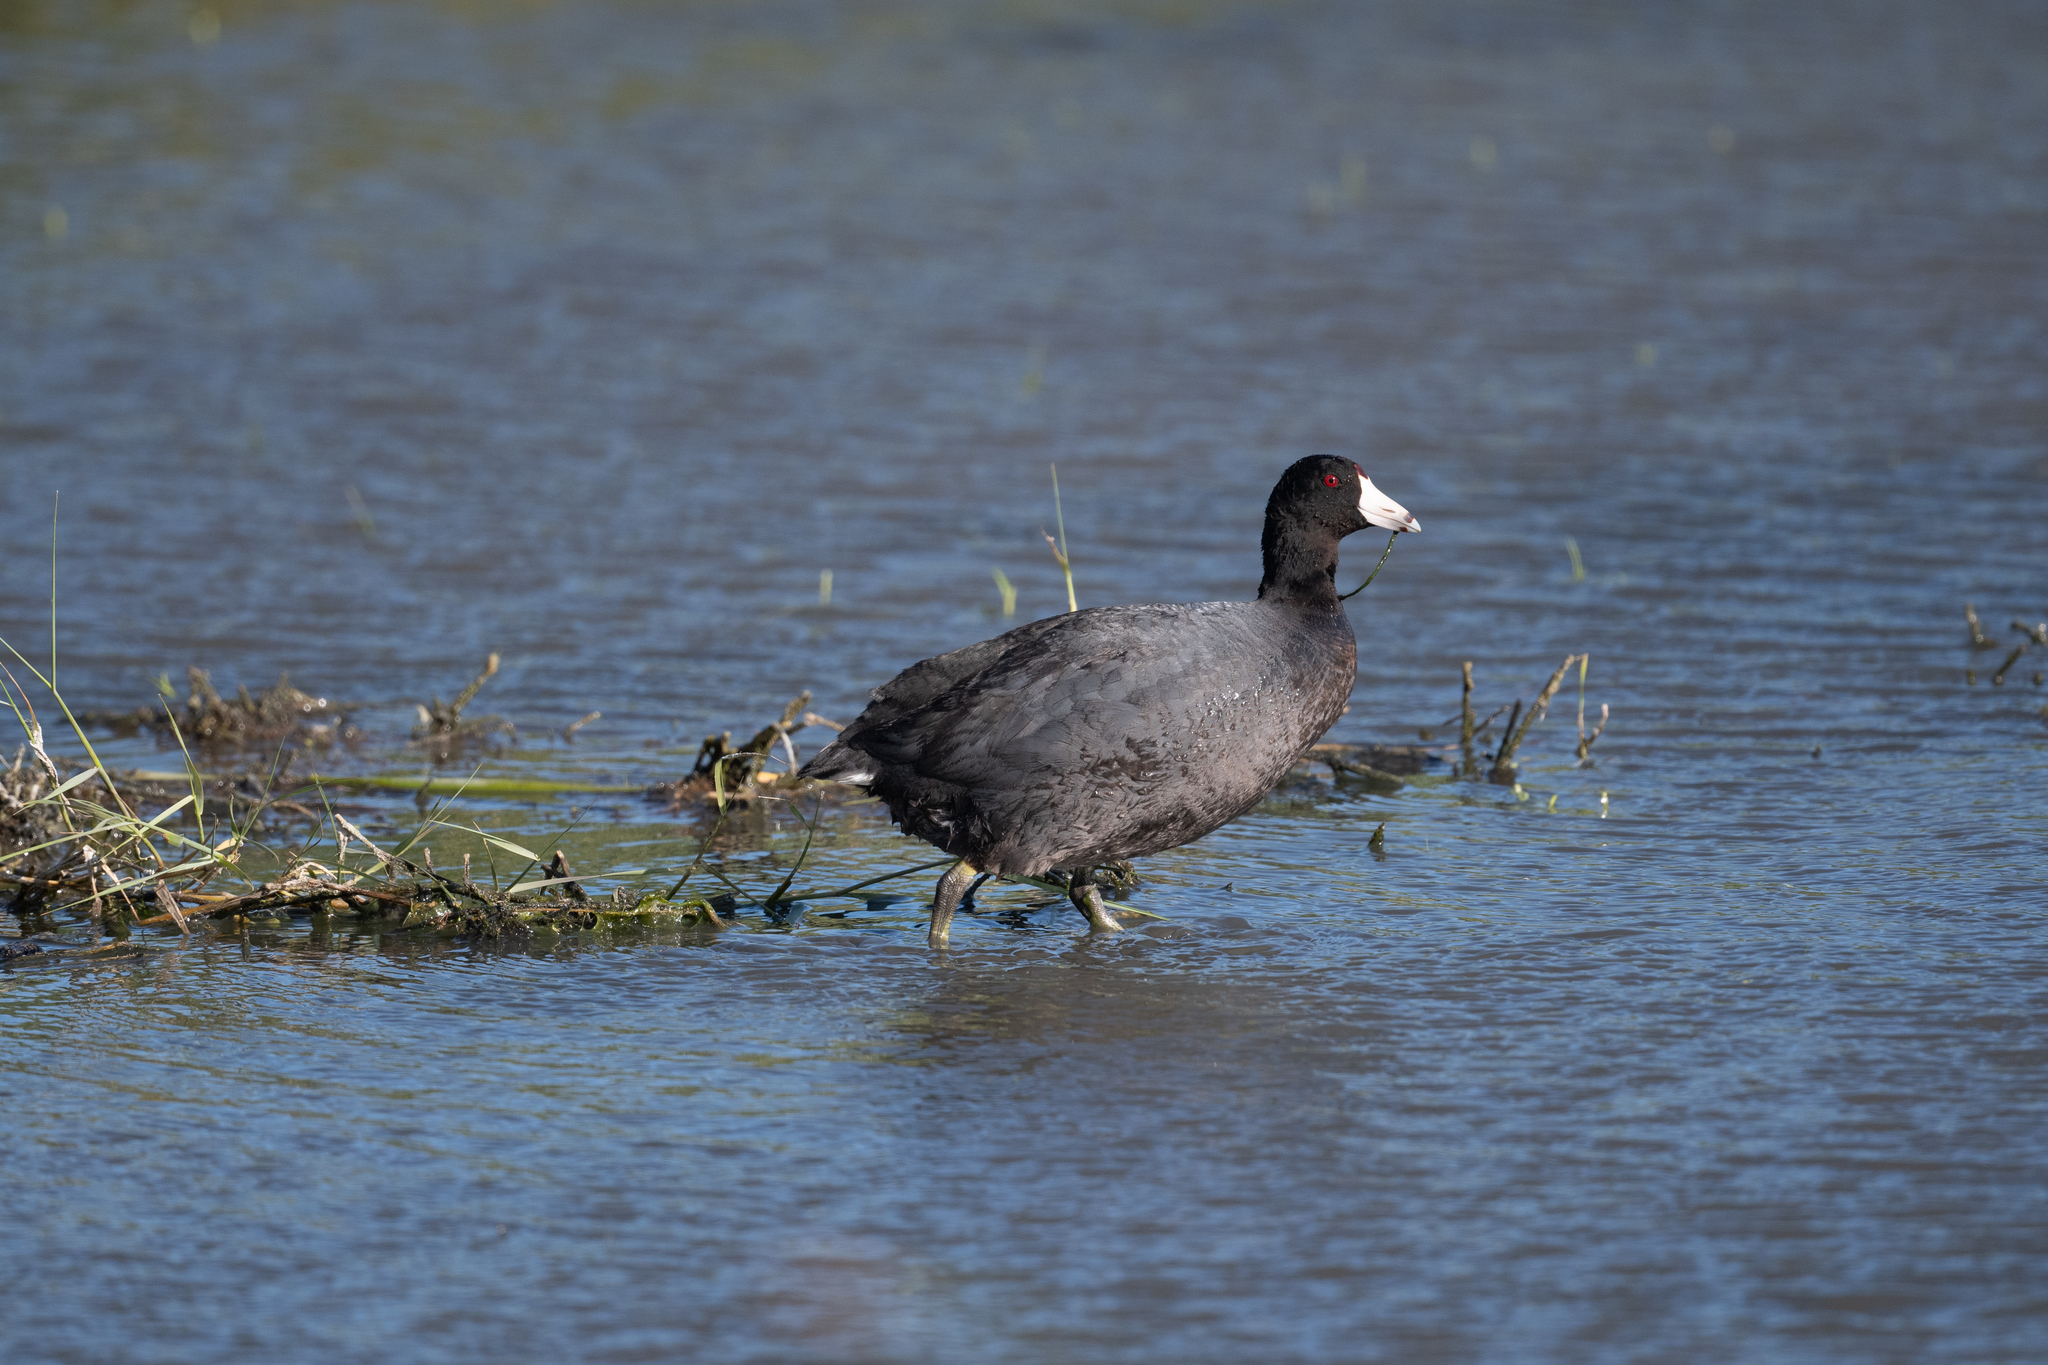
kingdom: Animalia
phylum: Chordata
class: Aves
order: Gruiformes
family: Rallidae
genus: Fulica
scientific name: Fulica americana
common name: American coot
